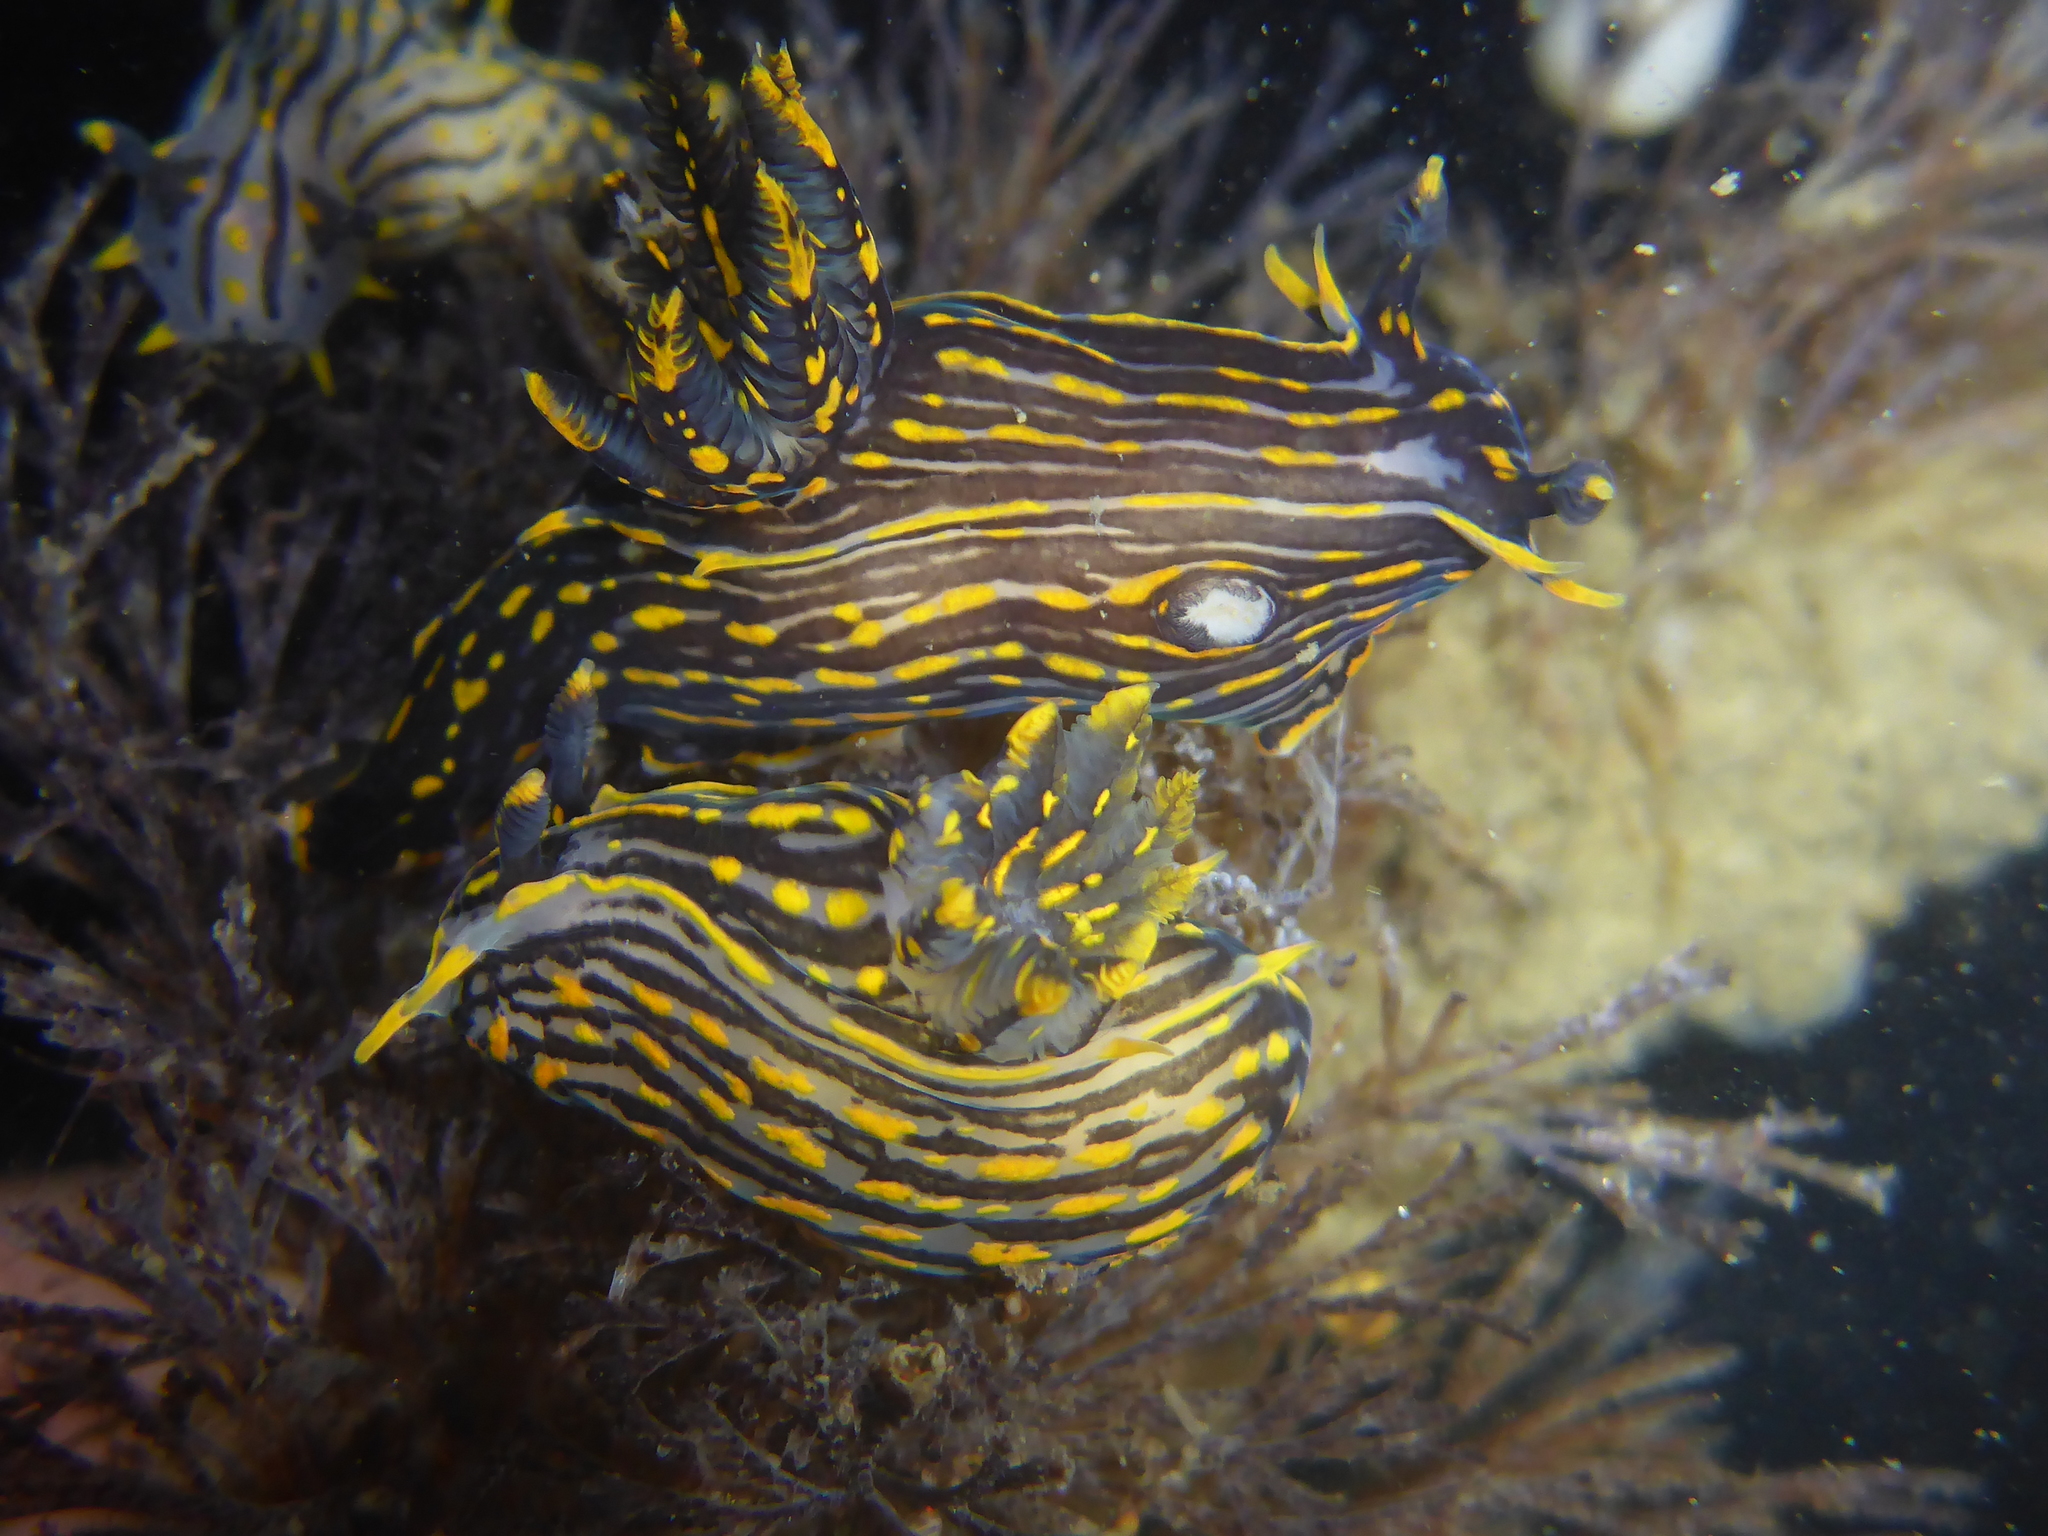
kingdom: Animalia
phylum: Mollusca
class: Gastropoda
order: Nudibranchia
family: Polyceridae
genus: Polycera
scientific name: Polycera atra
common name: Orange-spike polycera
